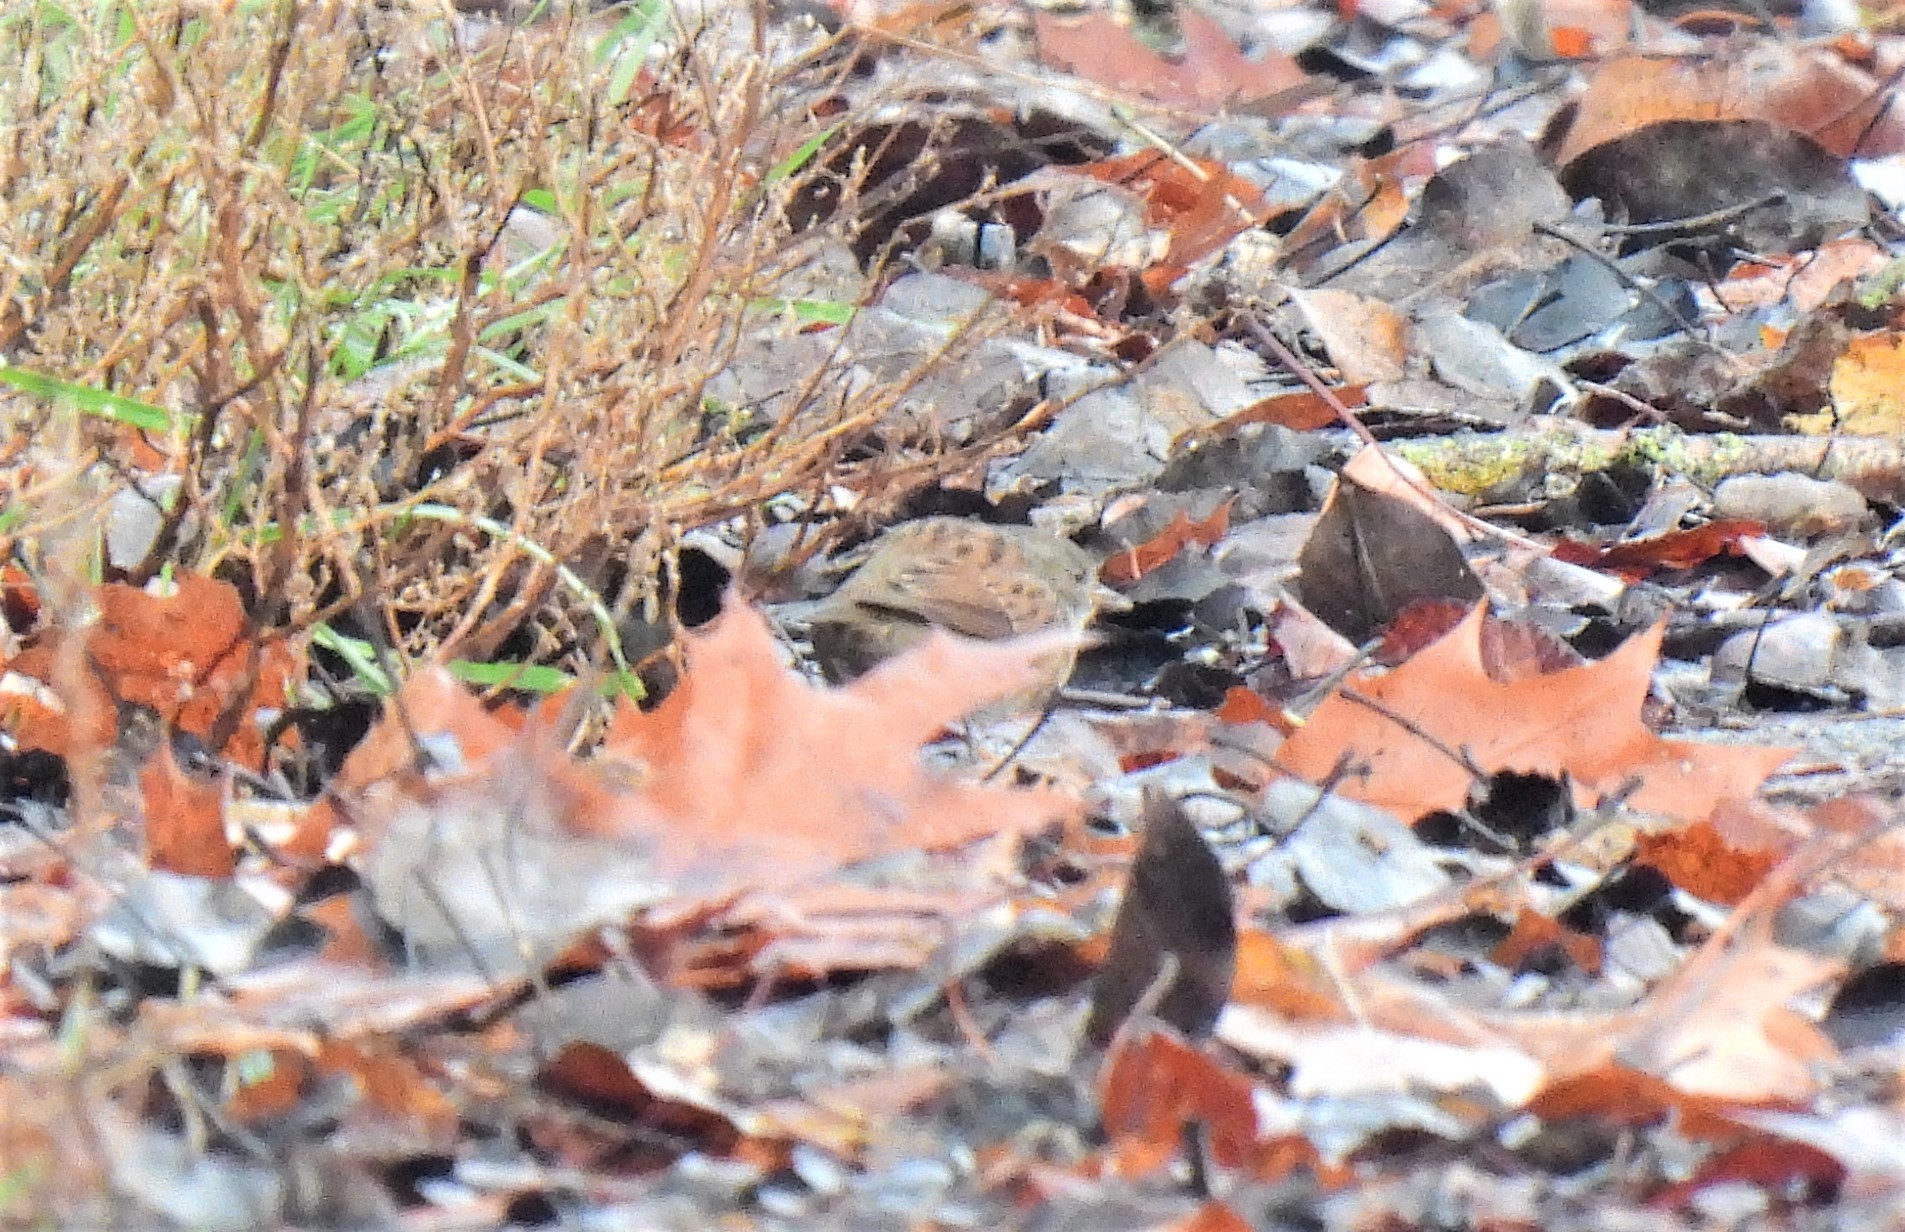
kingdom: Animalia
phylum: Chordata
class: Aves
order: Passeriformes
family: Prunellidae
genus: Prunella
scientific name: Prunella modularis
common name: Dunnock
